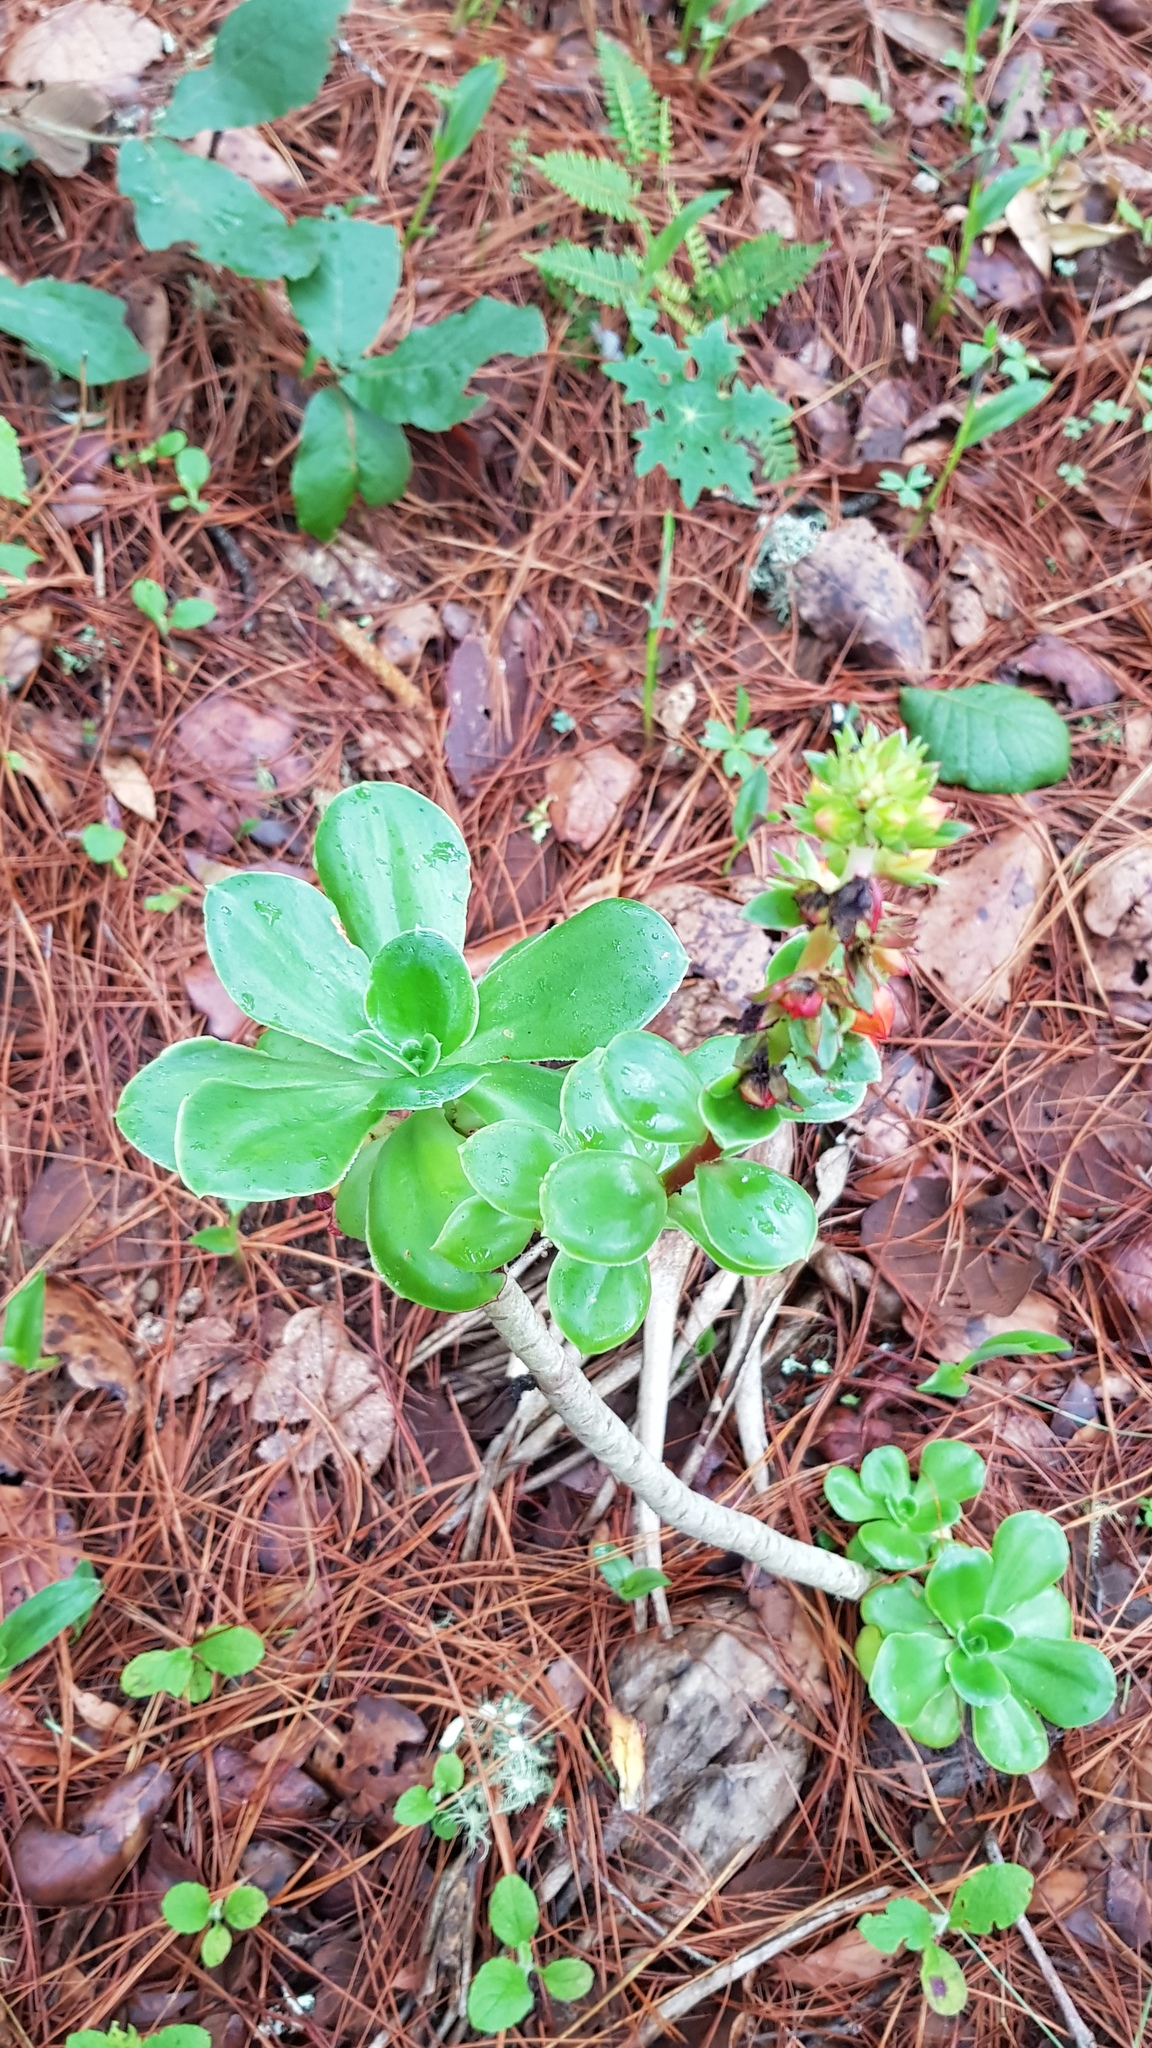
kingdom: Plantae
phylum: Tracheophyta
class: Magnoliopsida
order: Saxifragales
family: Crassulaceae
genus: Echeveria
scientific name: Echeveria montana
